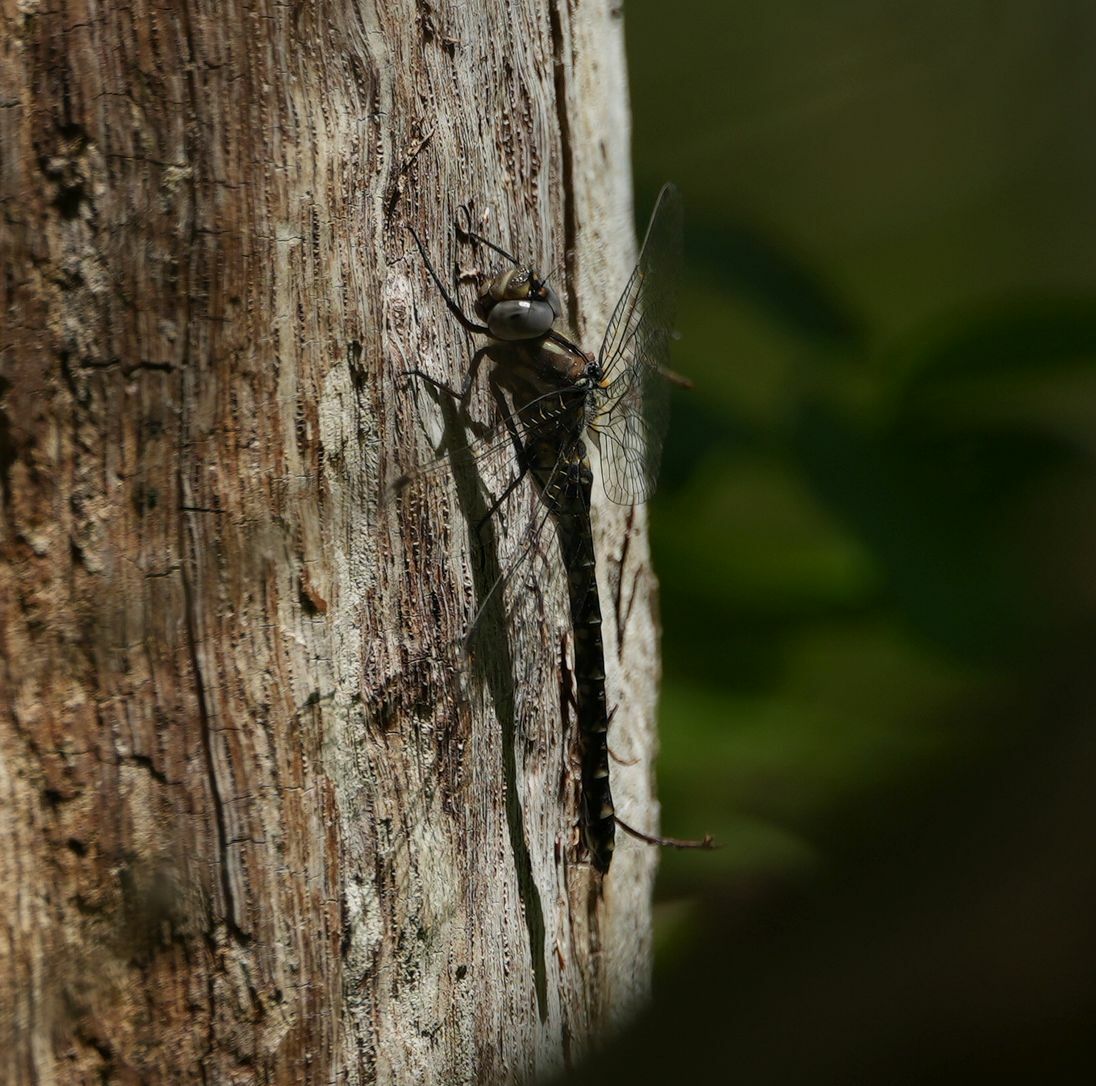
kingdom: Animalia
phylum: Arthropoda
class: Insecta
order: Odonata
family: Aeshnidae
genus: Gomphaeschna
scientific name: Gomphaeschna furcillata
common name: Harlequin darner
